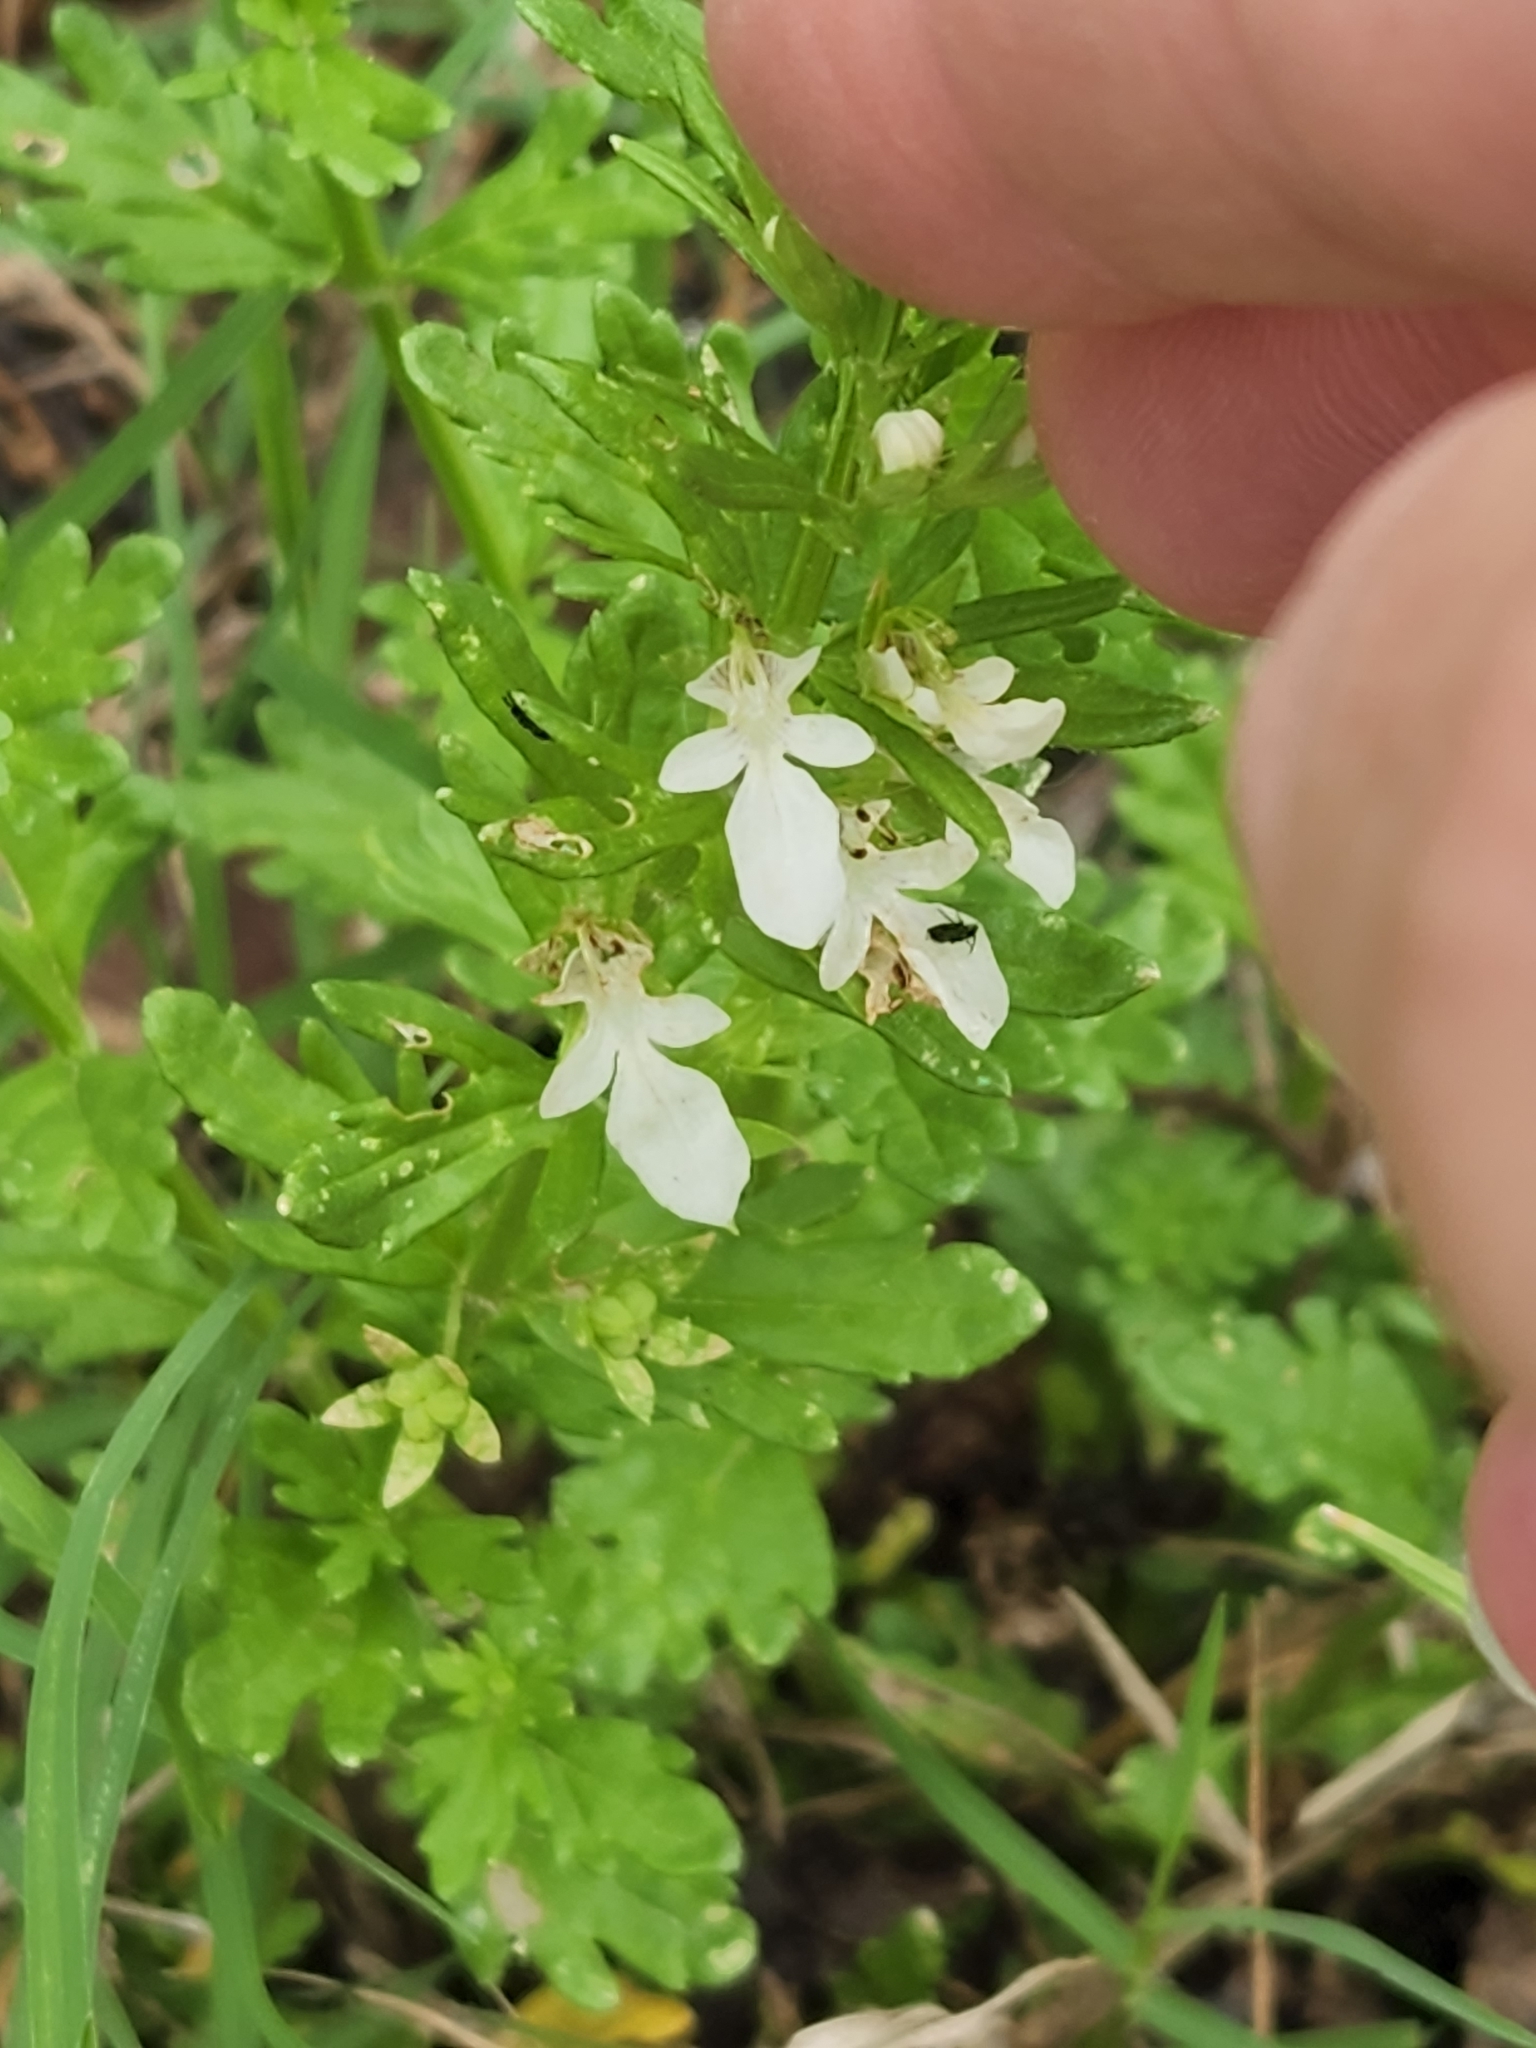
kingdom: Plantae
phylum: Tracheophyta
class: Magnoliopsida
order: Lamiales
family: Lamiaceae
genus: Teucrium
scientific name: Teucrium cubense
